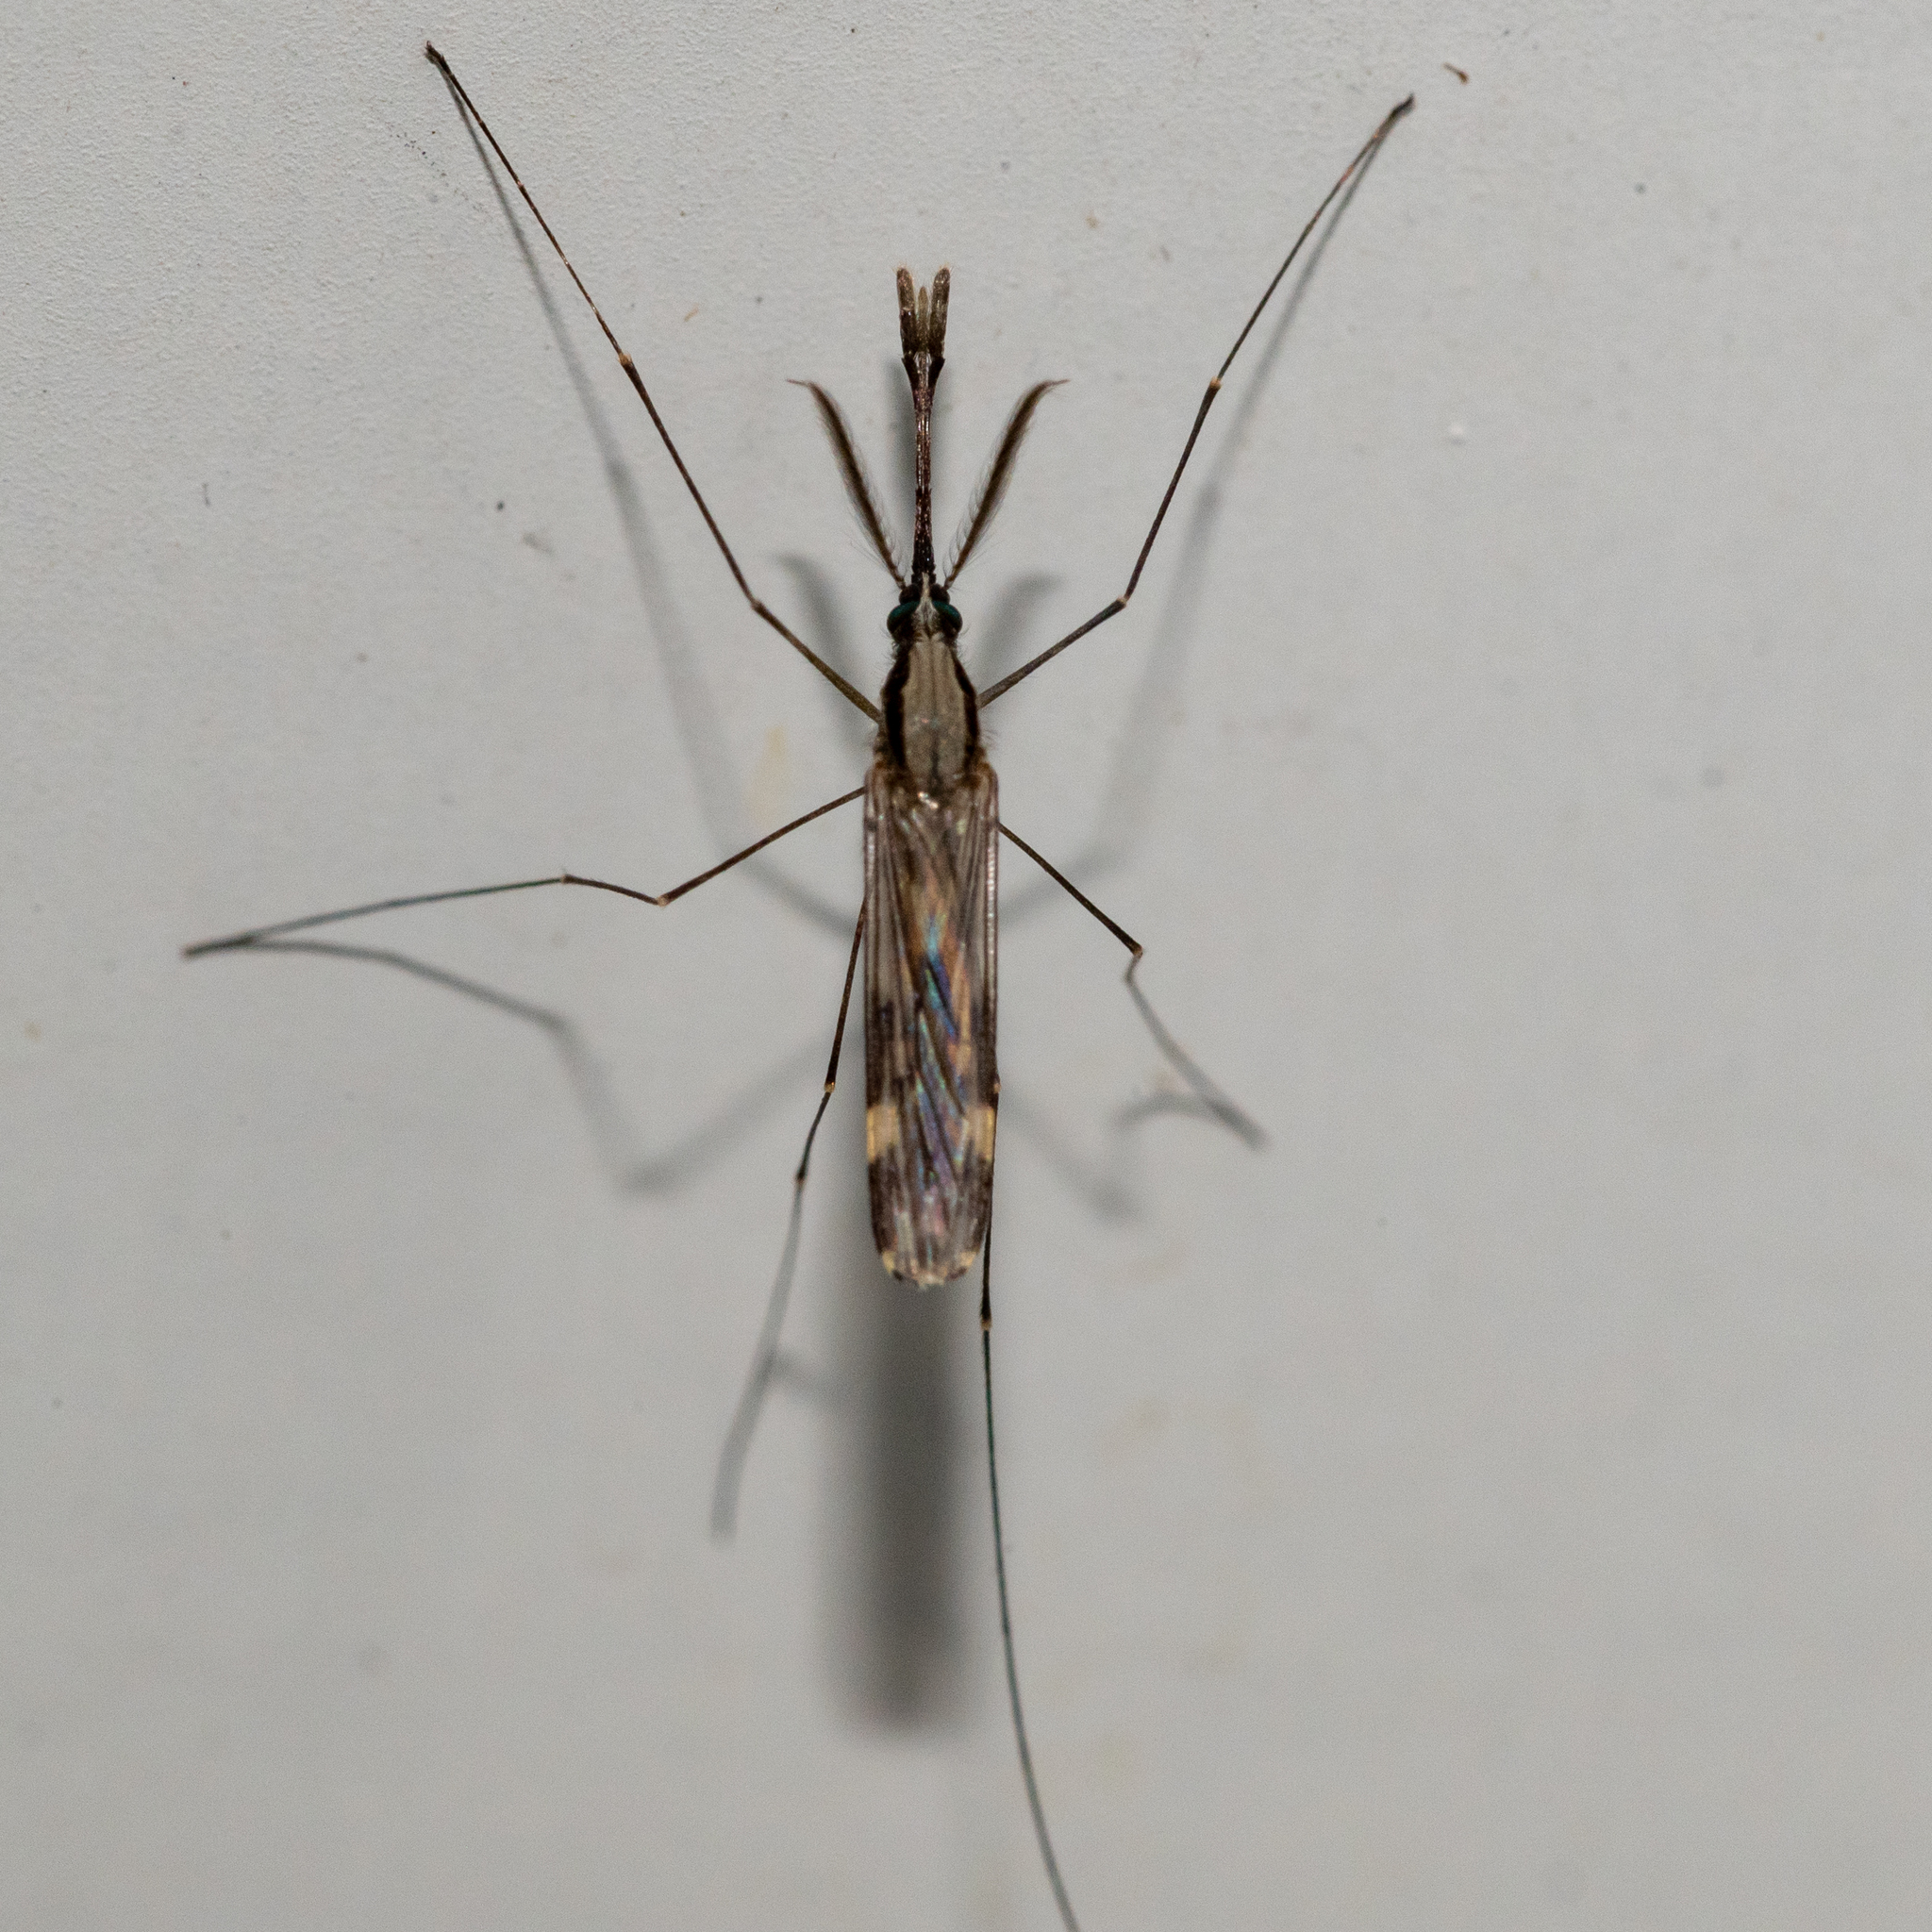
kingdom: Animalia
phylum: Arthropoda
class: Insecta
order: Diptera
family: Culicidae
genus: Anopheles
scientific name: Anopheles punctipennis
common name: Woodland malaria mosquito
